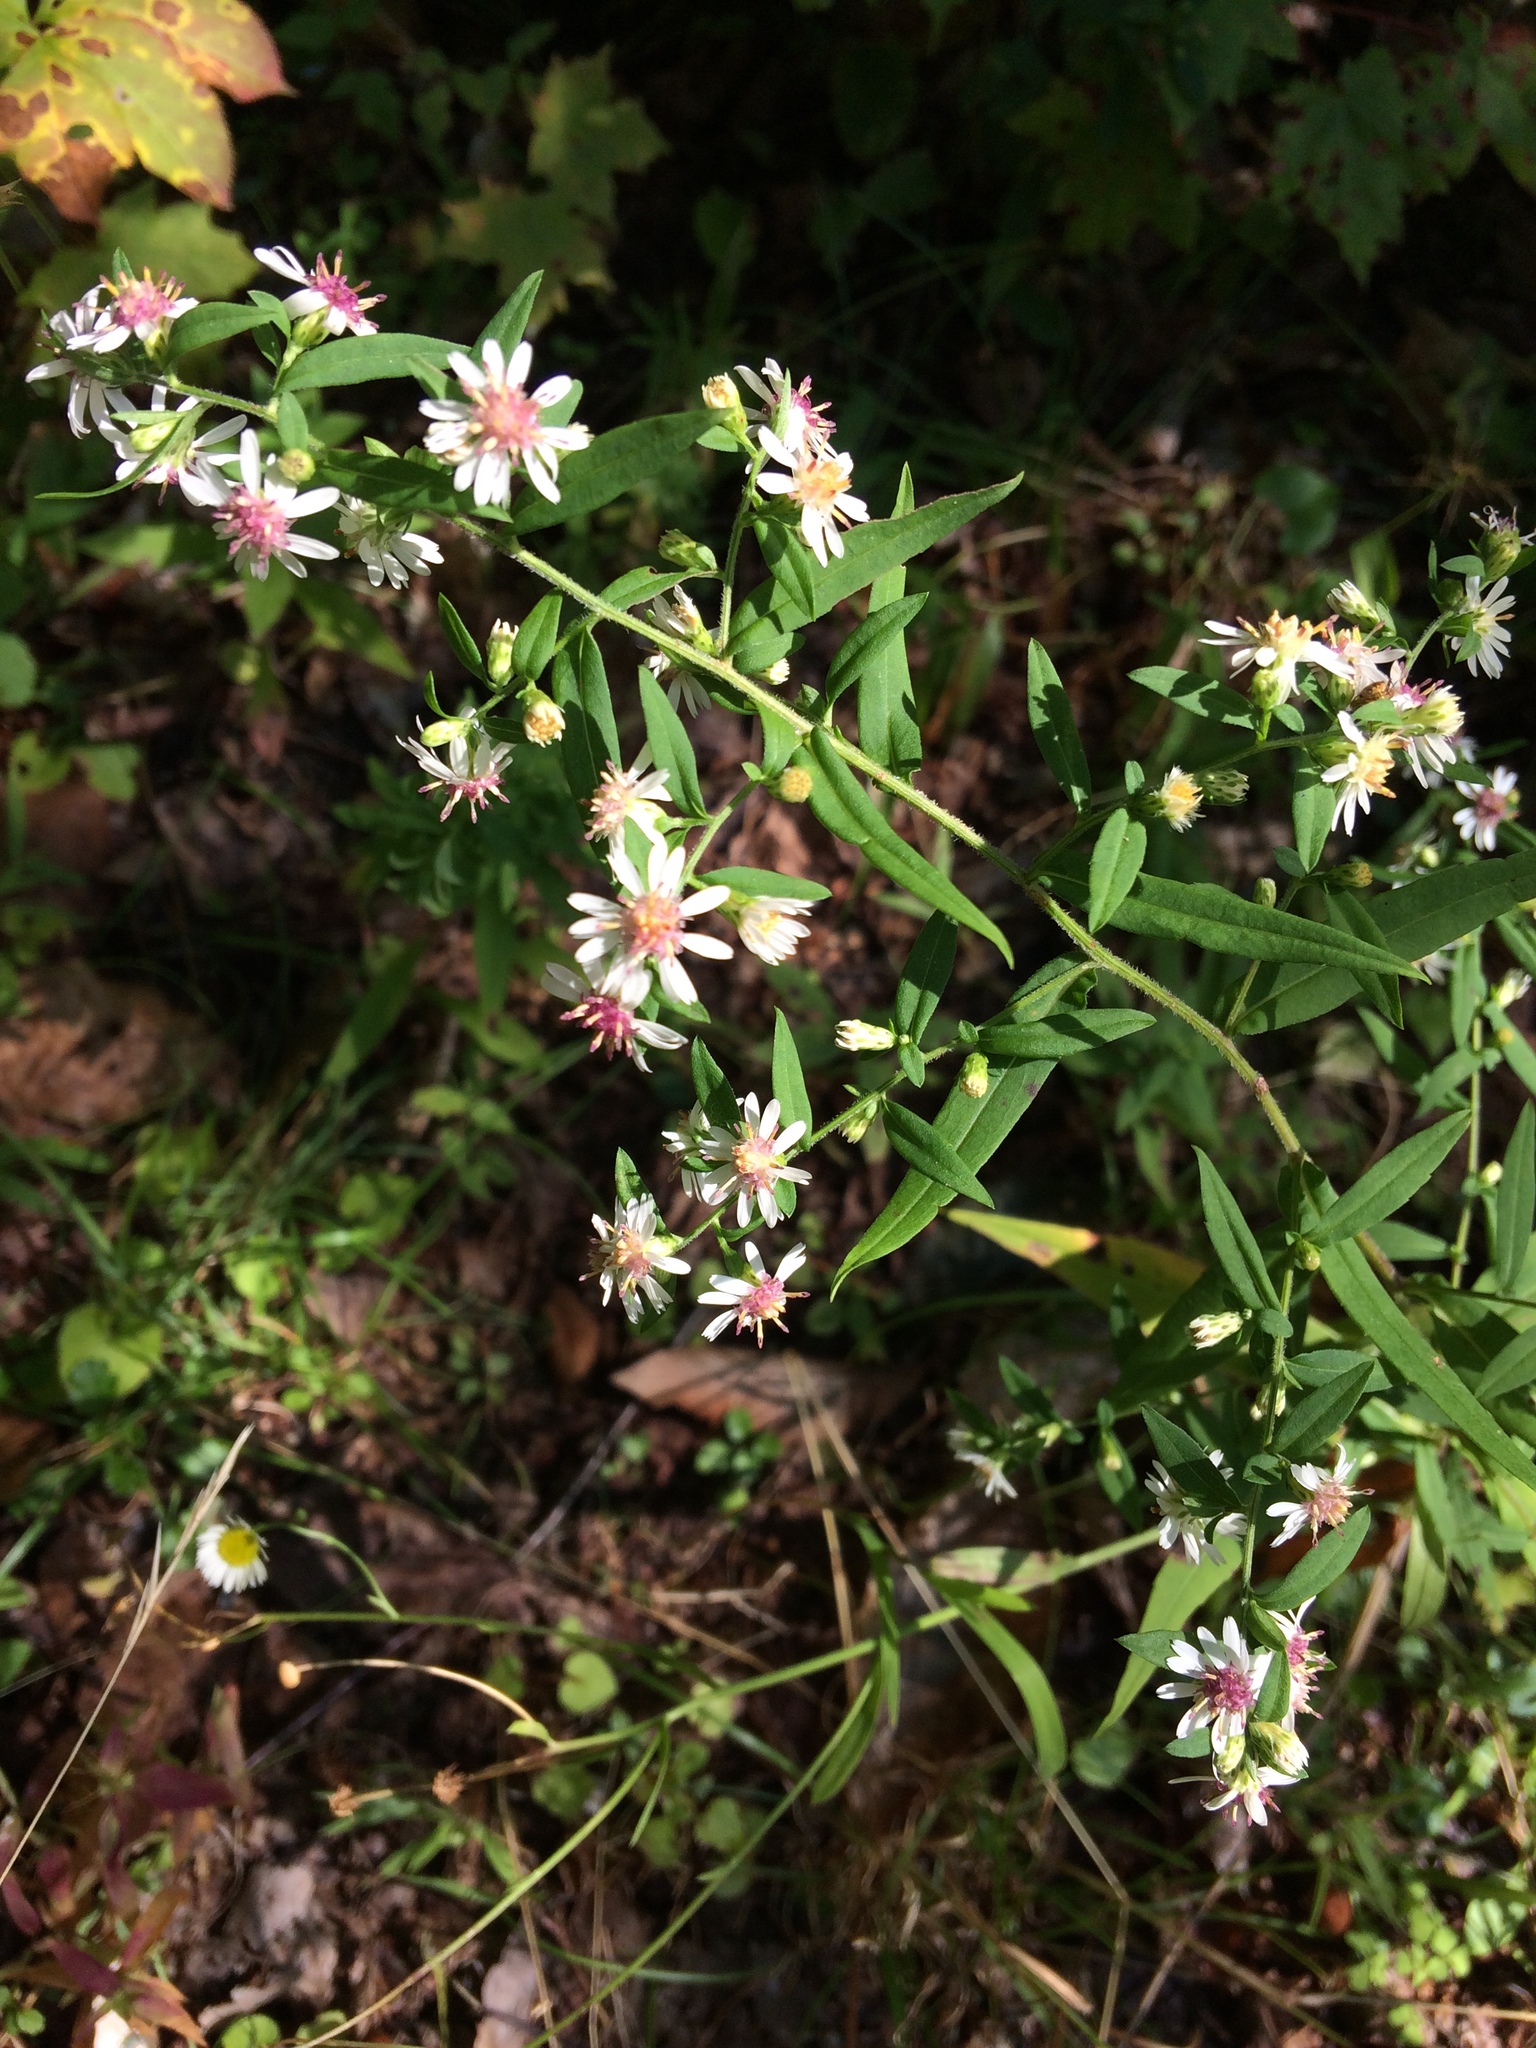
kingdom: Plantae
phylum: Tracheophyta
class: Magnoliopsida
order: Asterales
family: Asteraceae
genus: Symphyotrichum
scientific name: Symphyotrichum lateriflorum
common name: Calico aster
